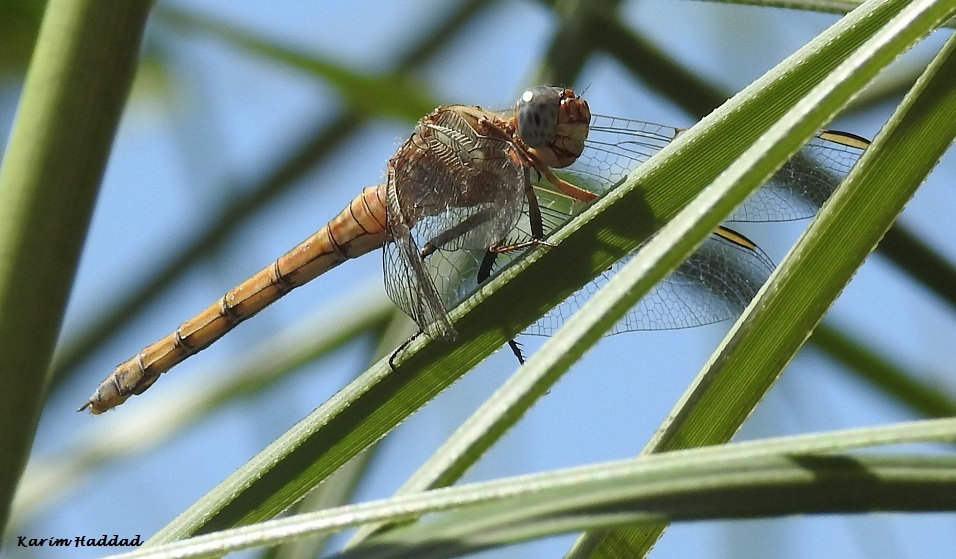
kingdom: Animalia
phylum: Arthropoda
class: Insecta
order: Odonata
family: Libellulidae
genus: Orthetrum
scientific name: Orthetrum chrysostigma
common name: Epaulet skimmer
